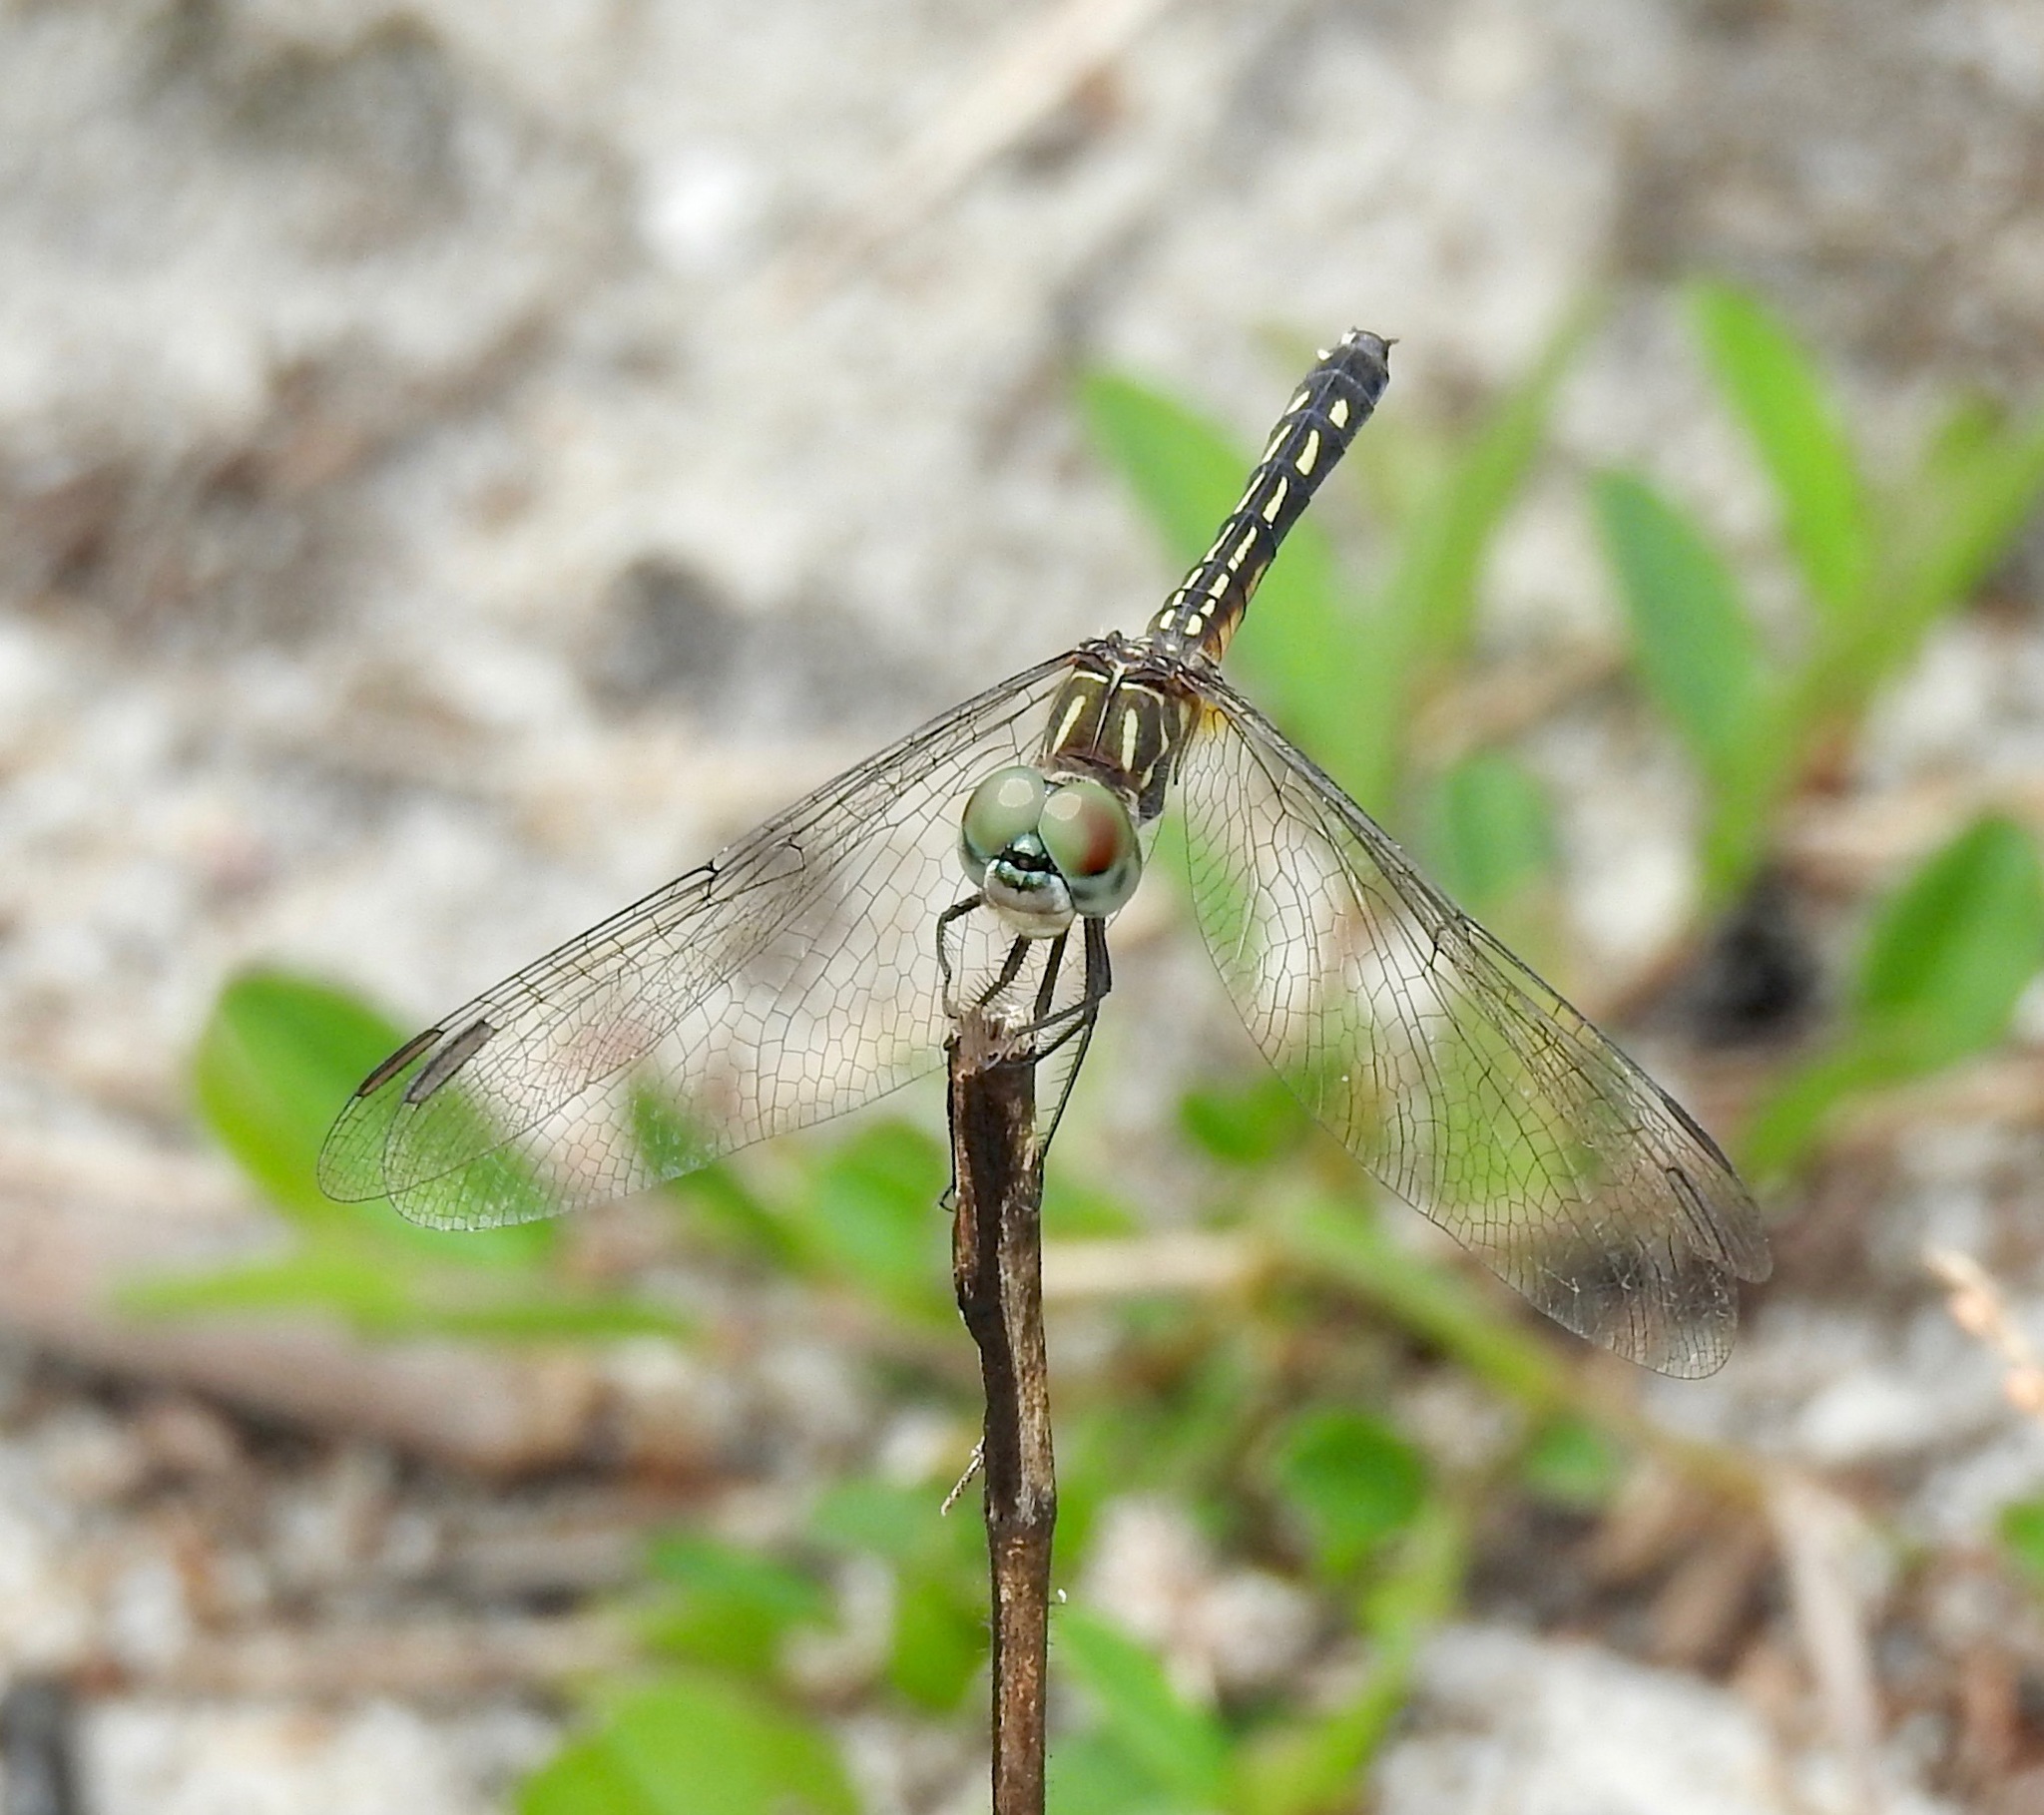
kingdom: Animalia
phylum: Arthropoda
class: Insecta
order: Odonata
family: Libellulidae
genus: Pachydiplax
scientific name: Pachydiplax longipennis
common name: Blue dasher
